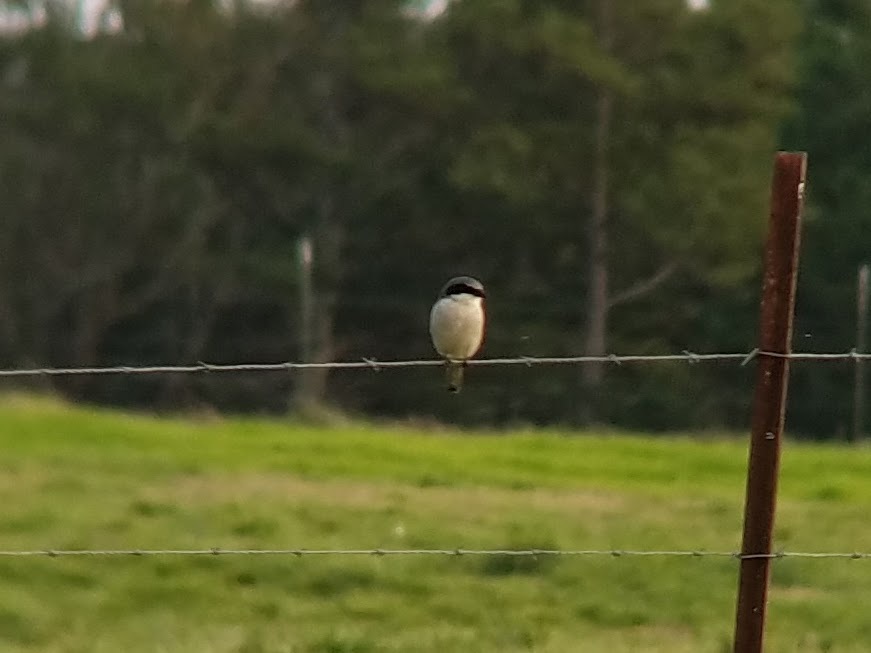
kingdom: Animalia
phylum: Chordata
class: Aves
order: Passeriformes
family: Laniidae
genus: Lanius
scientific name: Lanius ludovicianus
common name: Loggerhead shrike
